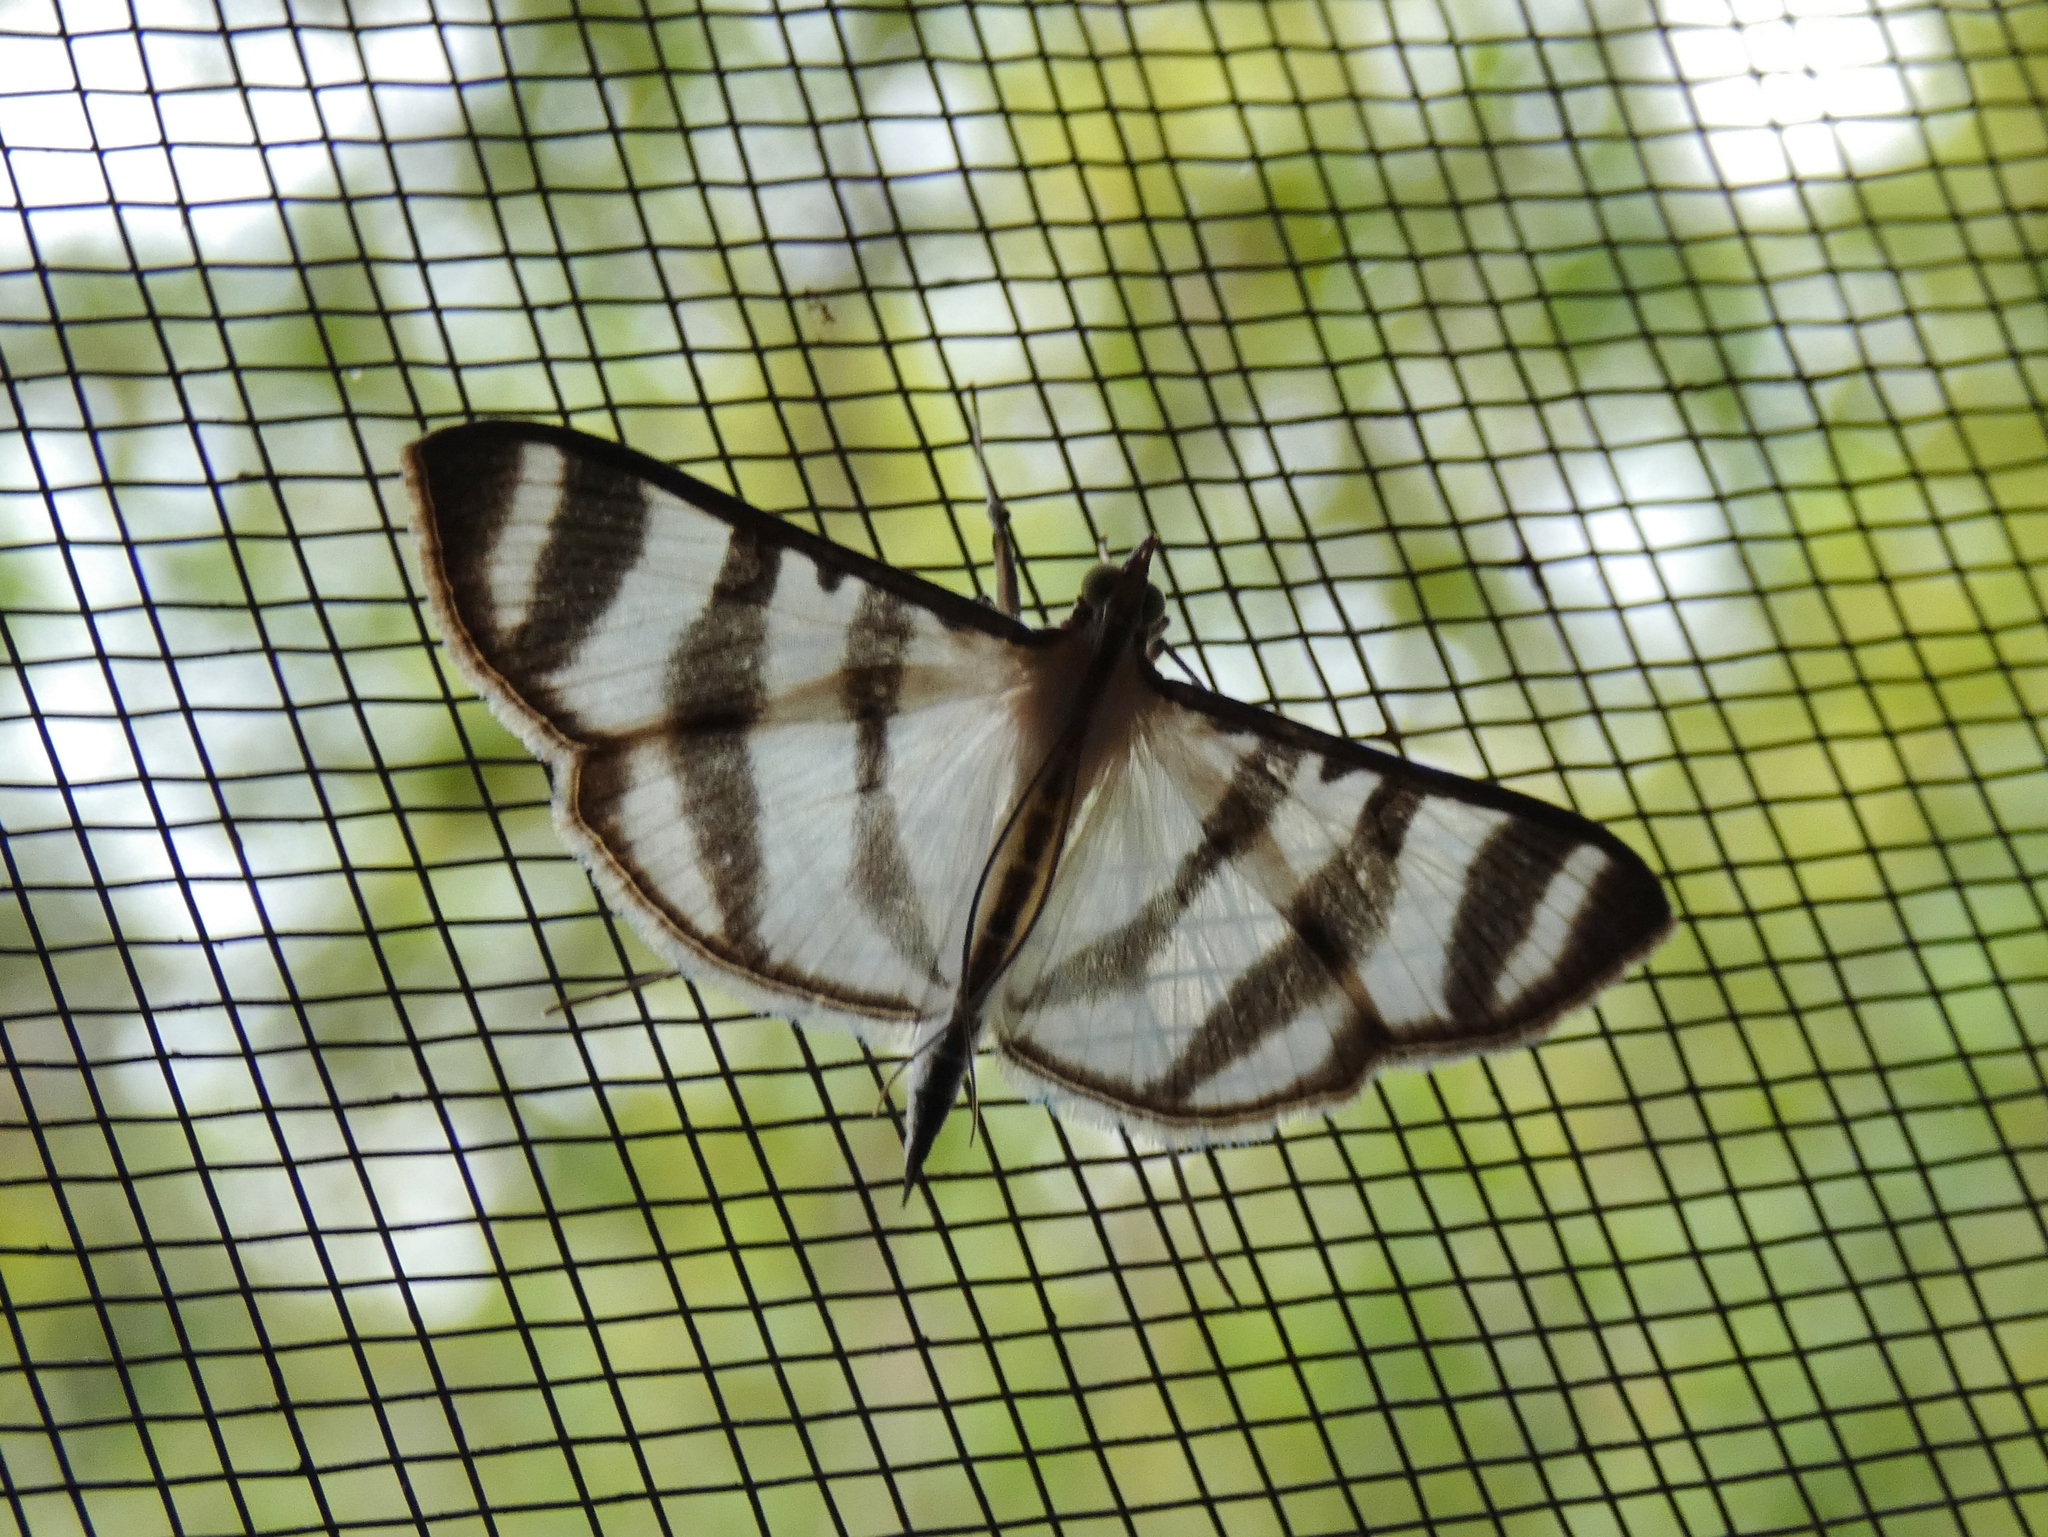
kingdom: Animalia
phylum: Arthropoda
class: Insecta
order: Lepidoptera
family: Crambidae
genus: Zebronia
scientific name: Zebronia phenice
